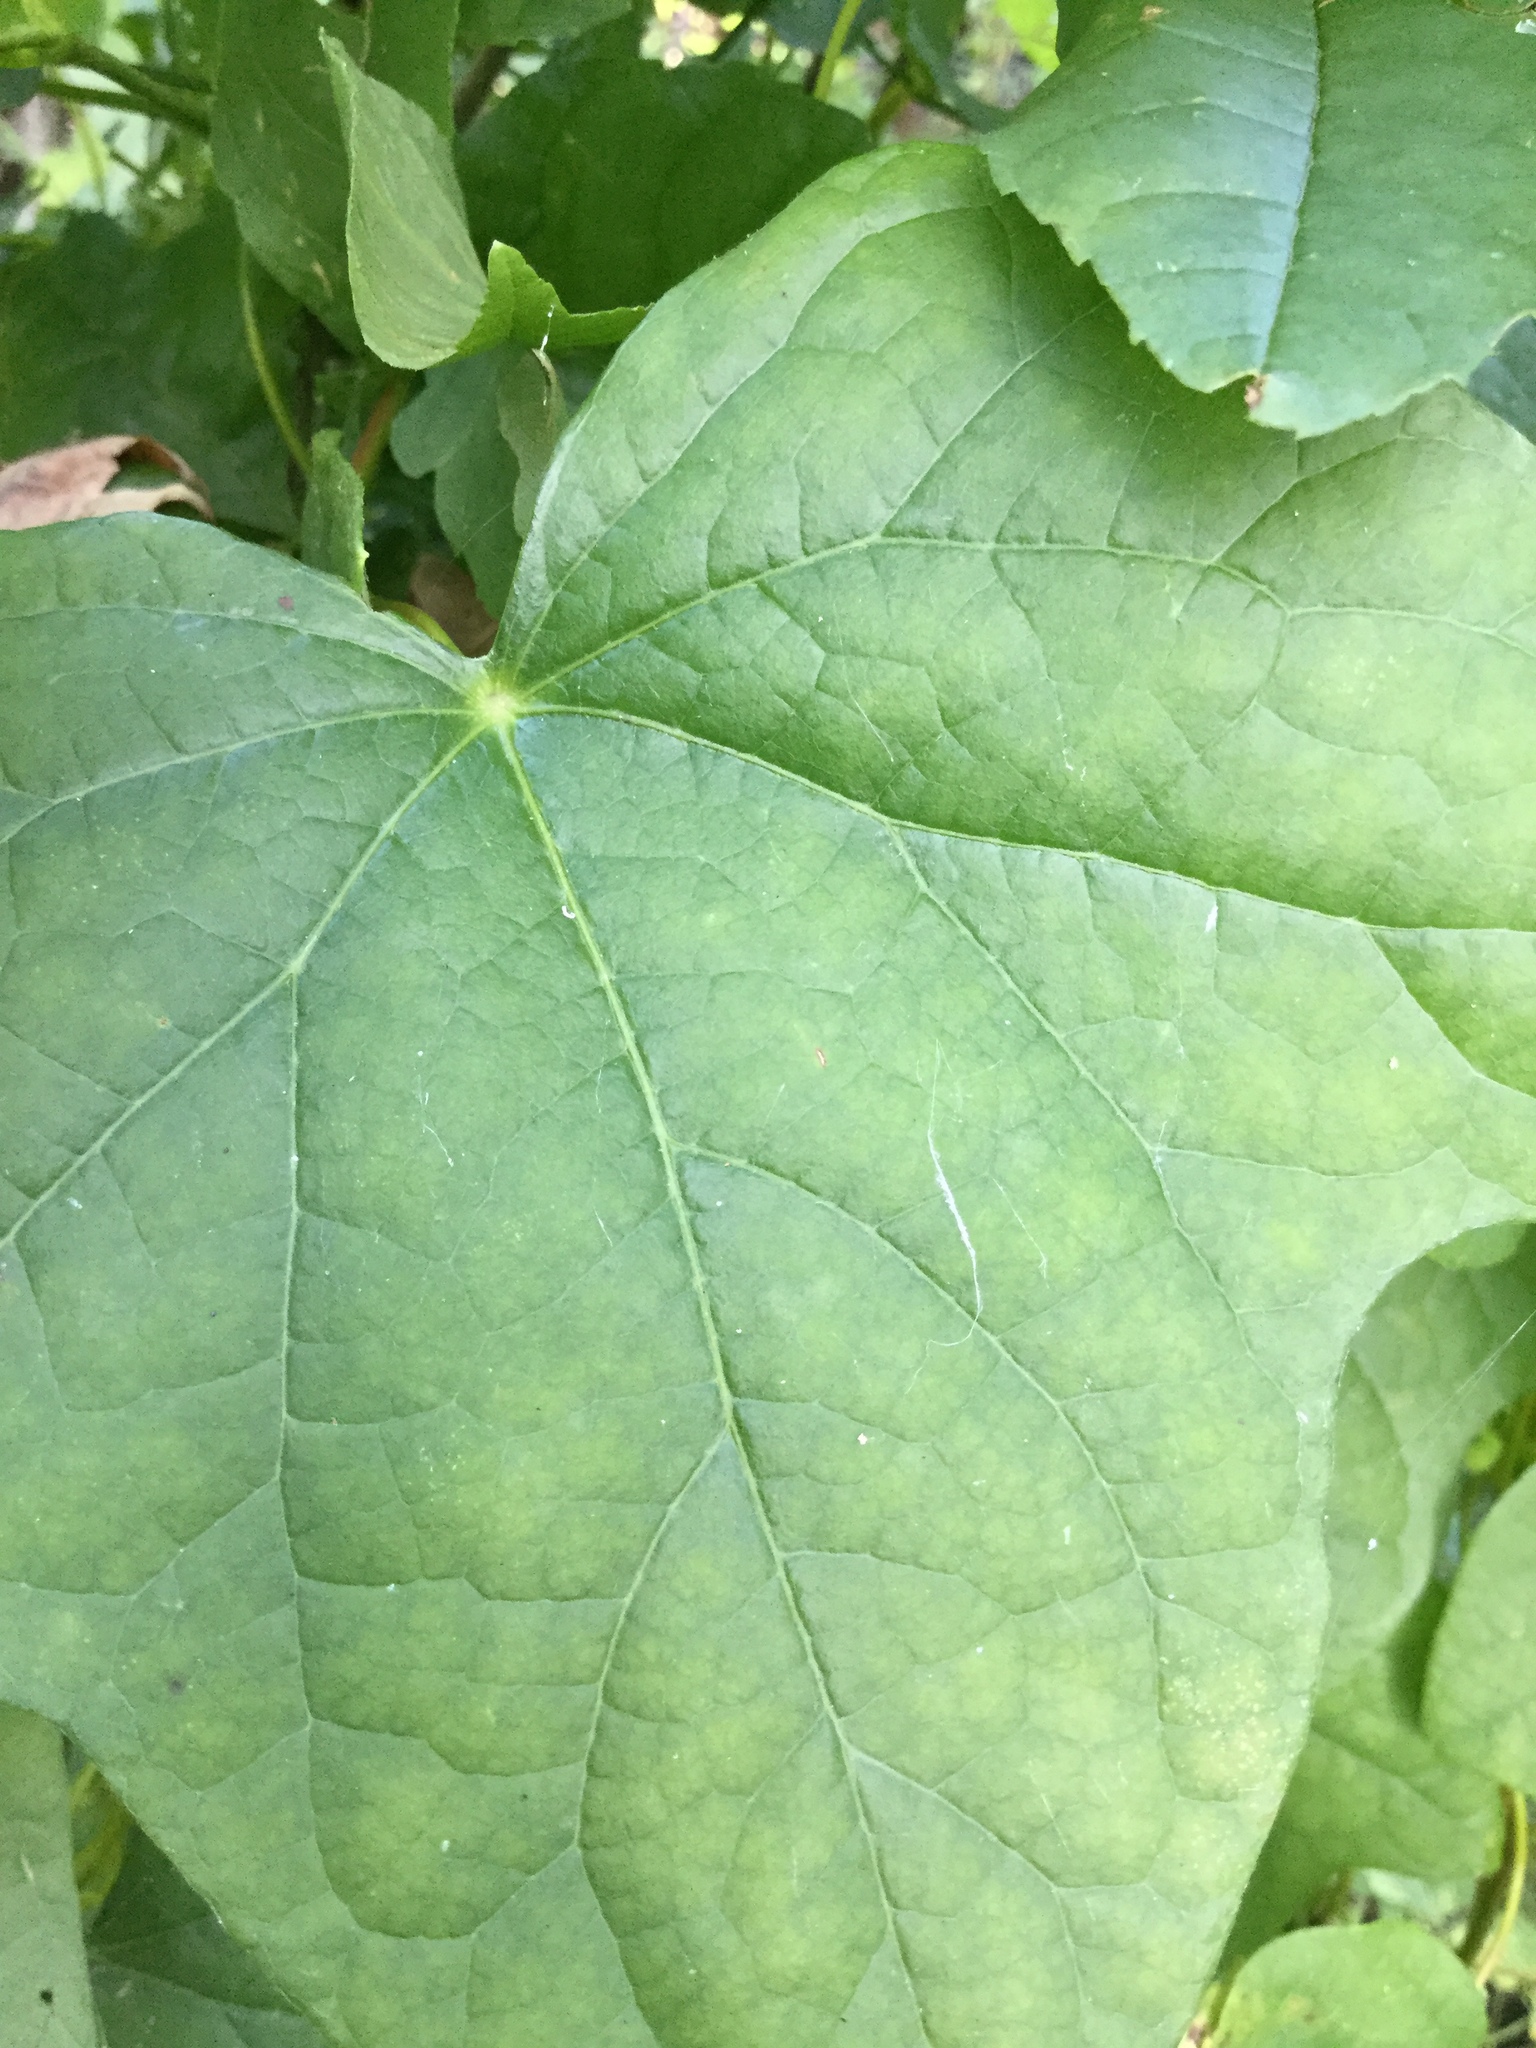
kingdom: Plantae
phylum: Tracheophyta
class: Magnoliopsida
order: Ranunculales
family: Menispermaceae
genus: Menispermum
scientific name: Menispermum canadense
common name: Moonseed
